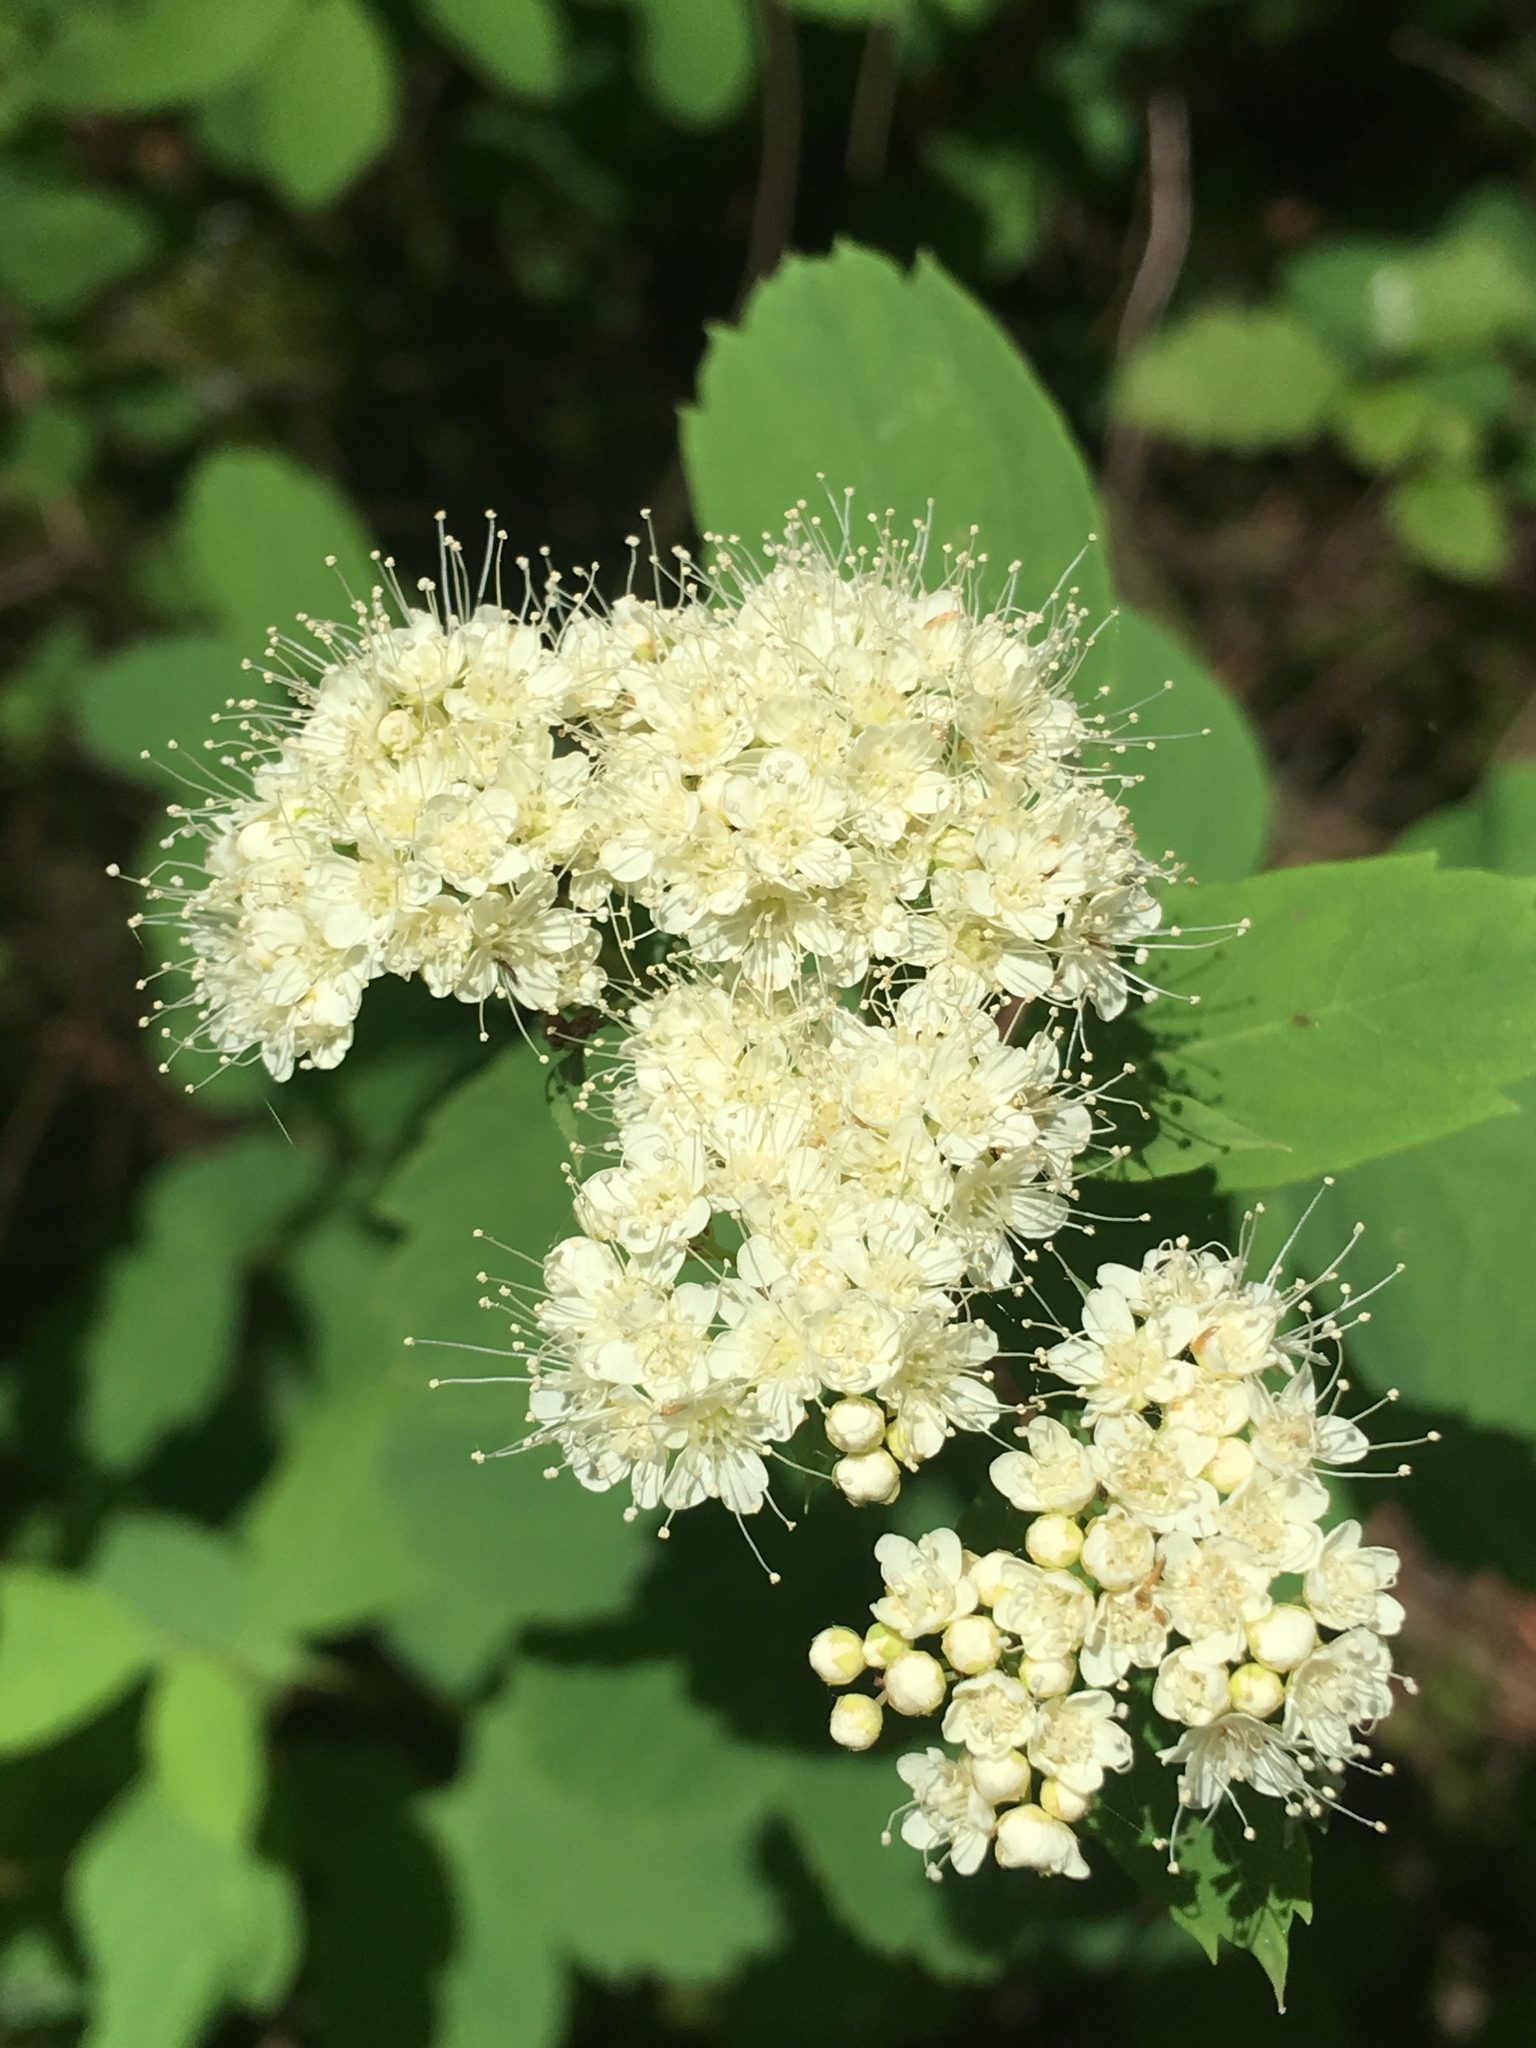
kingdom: Plantae
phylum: Tracheophyta
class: Magnoliopsida
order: Rosales
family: Rosaceae
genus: Spiraea
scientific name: Spiraea lucida
